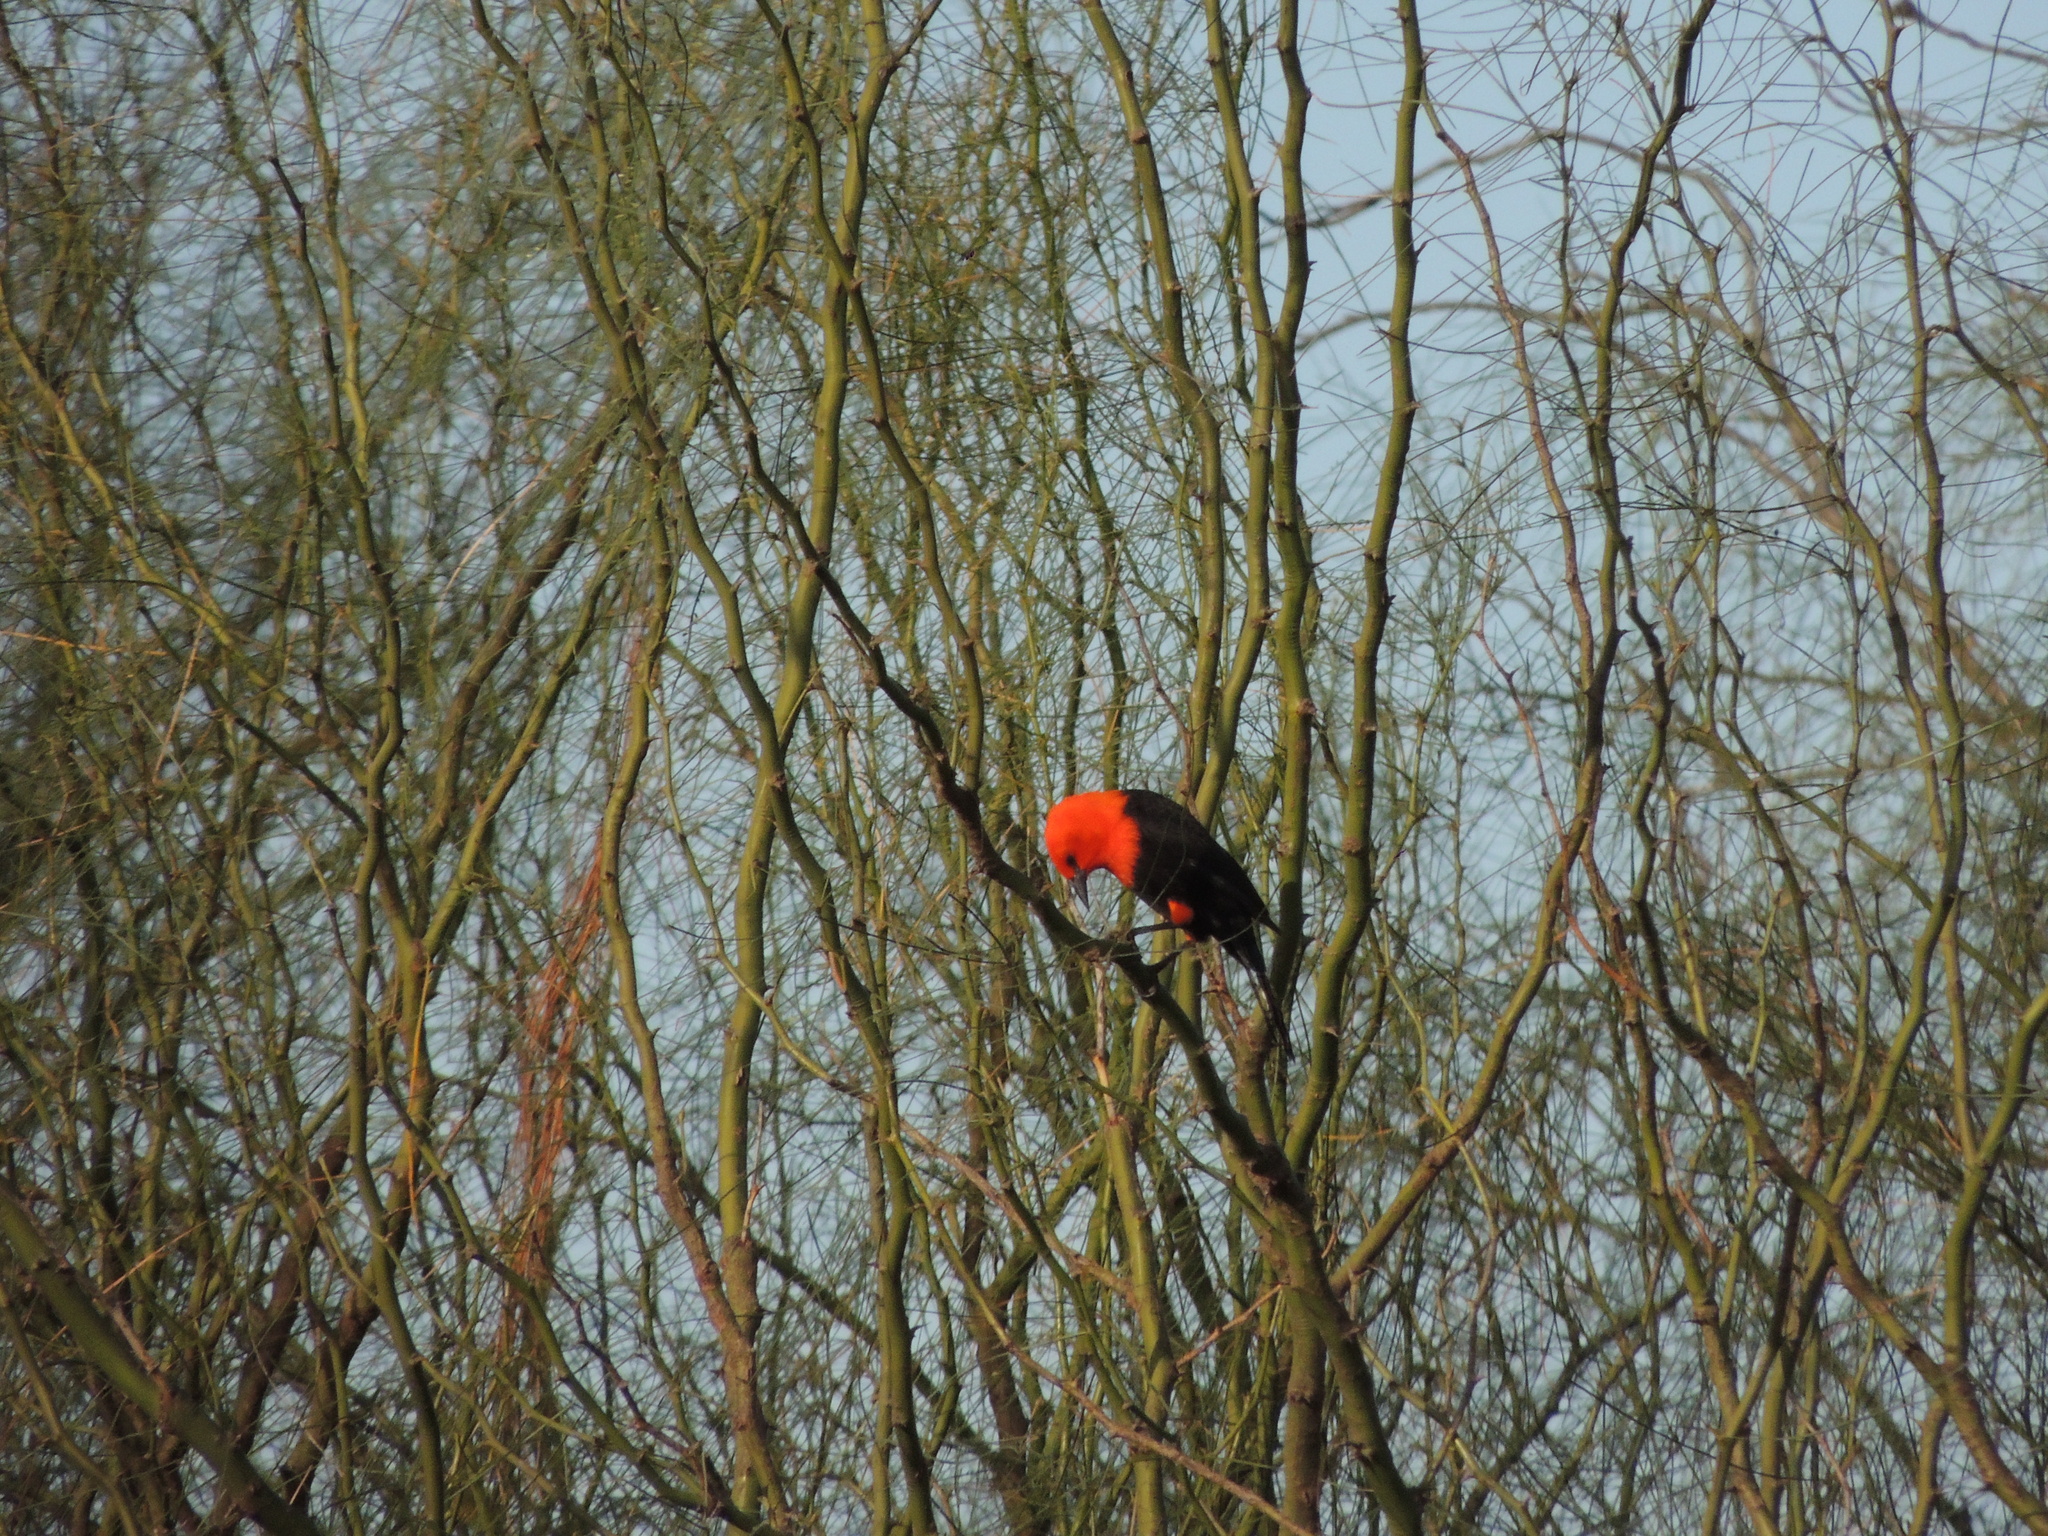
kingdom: Animalia
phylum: Chordata
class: Aves
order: Passeriformes
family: Icteridae
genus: Amblyramphus
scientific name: Amblyramphus holosericeus
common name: Scarlet-headed blackbird
